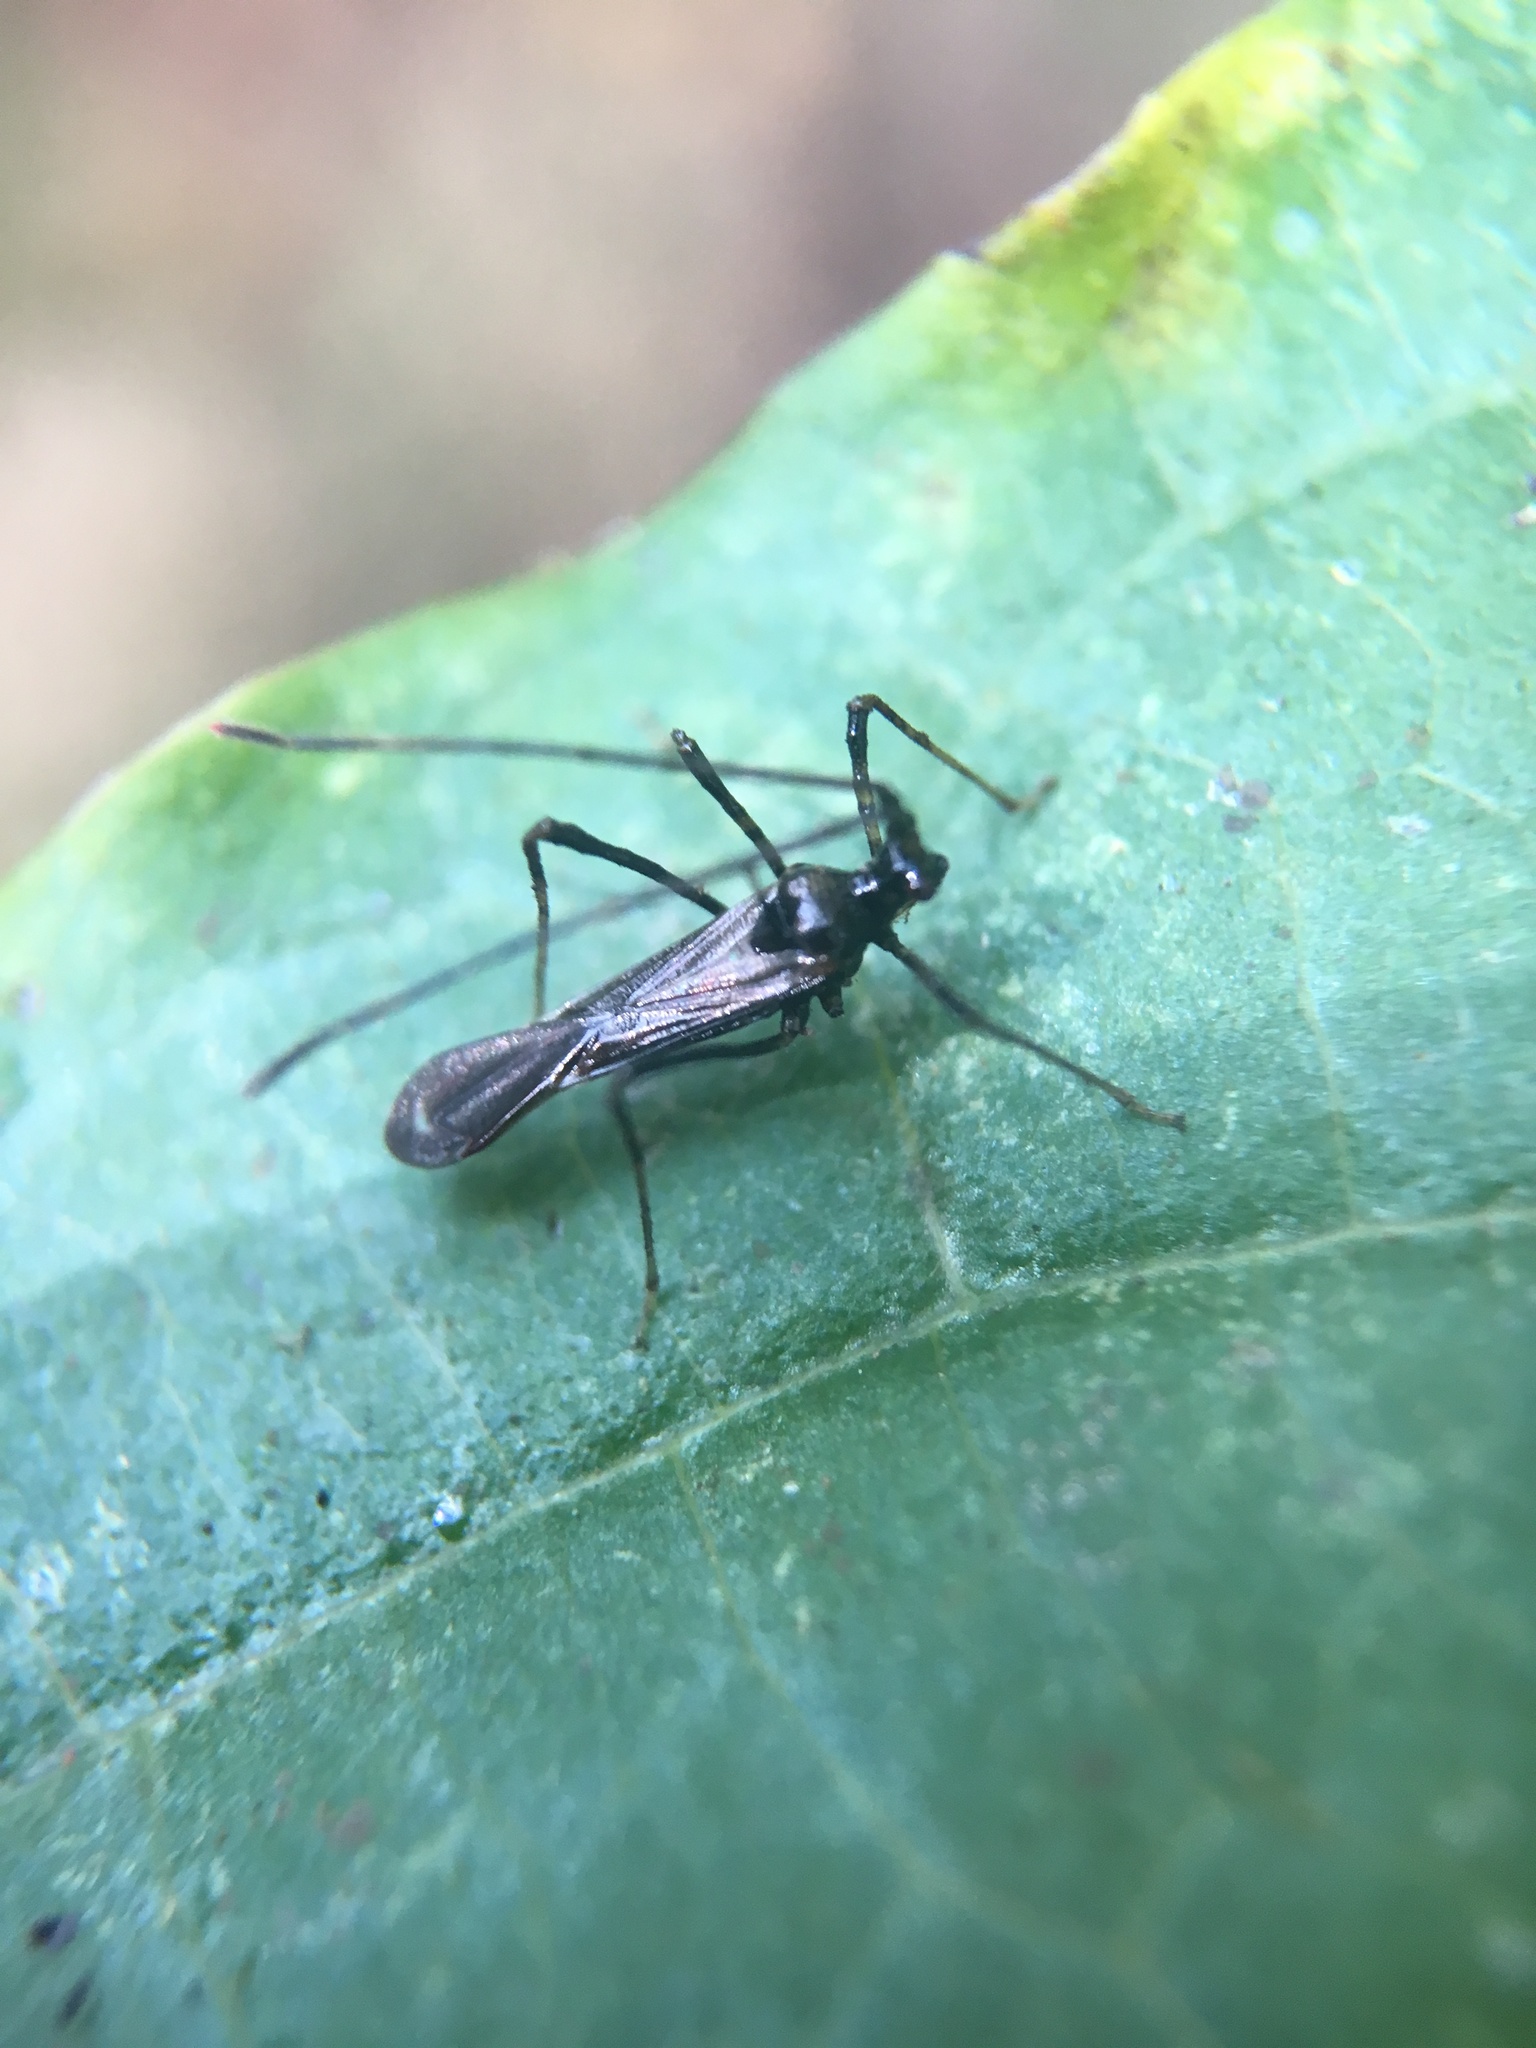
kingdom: Animalia
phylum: Arthropoda
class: Insecta
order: Hemiptera
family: Miridae
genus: Helopeltis
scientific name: Helopeltis cinchonae
